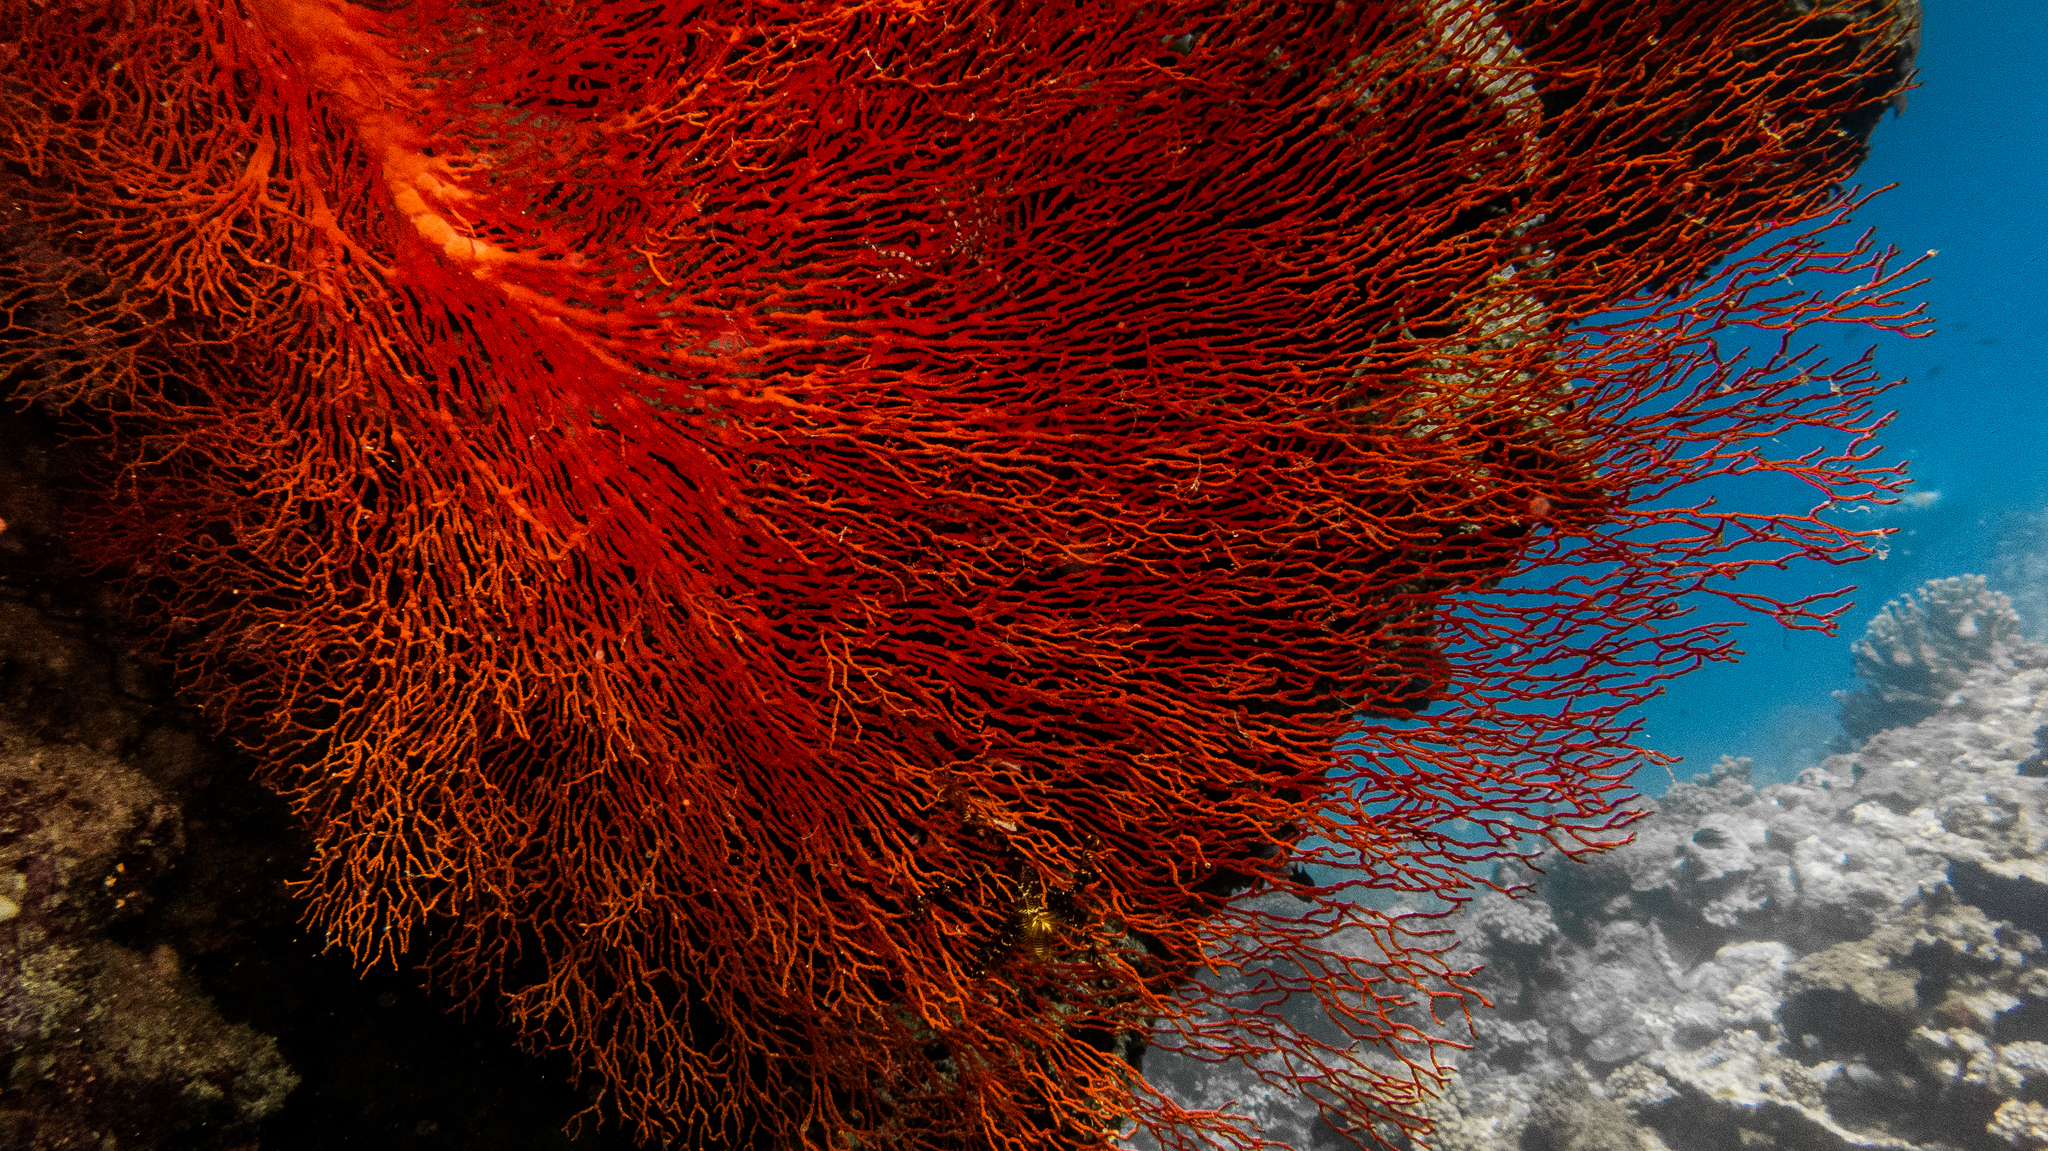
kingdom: Animalia
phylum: Cnidaria
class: Anthozoa
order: Malacalcyonacea
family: Melithaeidae
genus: Melithaea
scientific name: Melithaea ochracea
